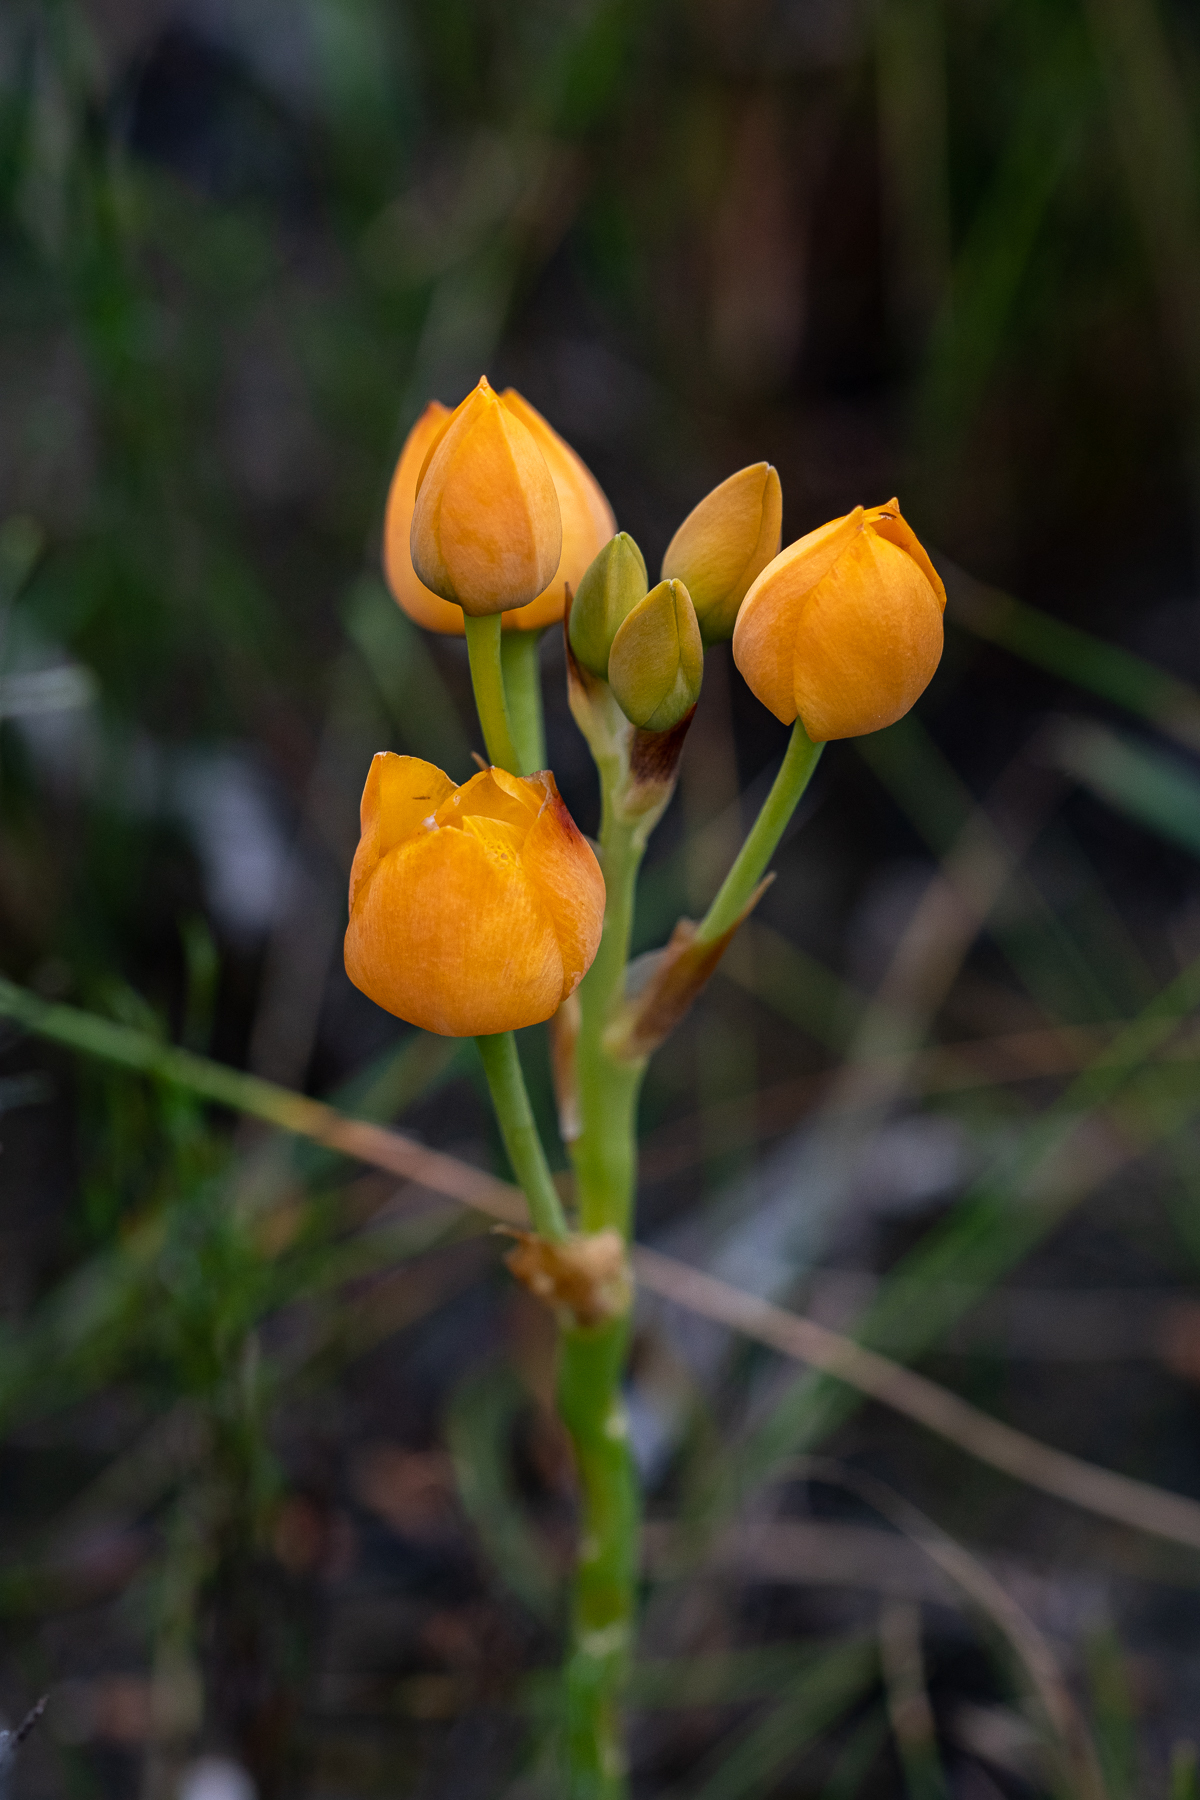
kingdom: Plantae
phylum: Tracheophyta
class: Liliopsida
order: Asparagales
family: Asparagaceae
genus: Ornithogalum
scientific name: Ornithogalum dubium
